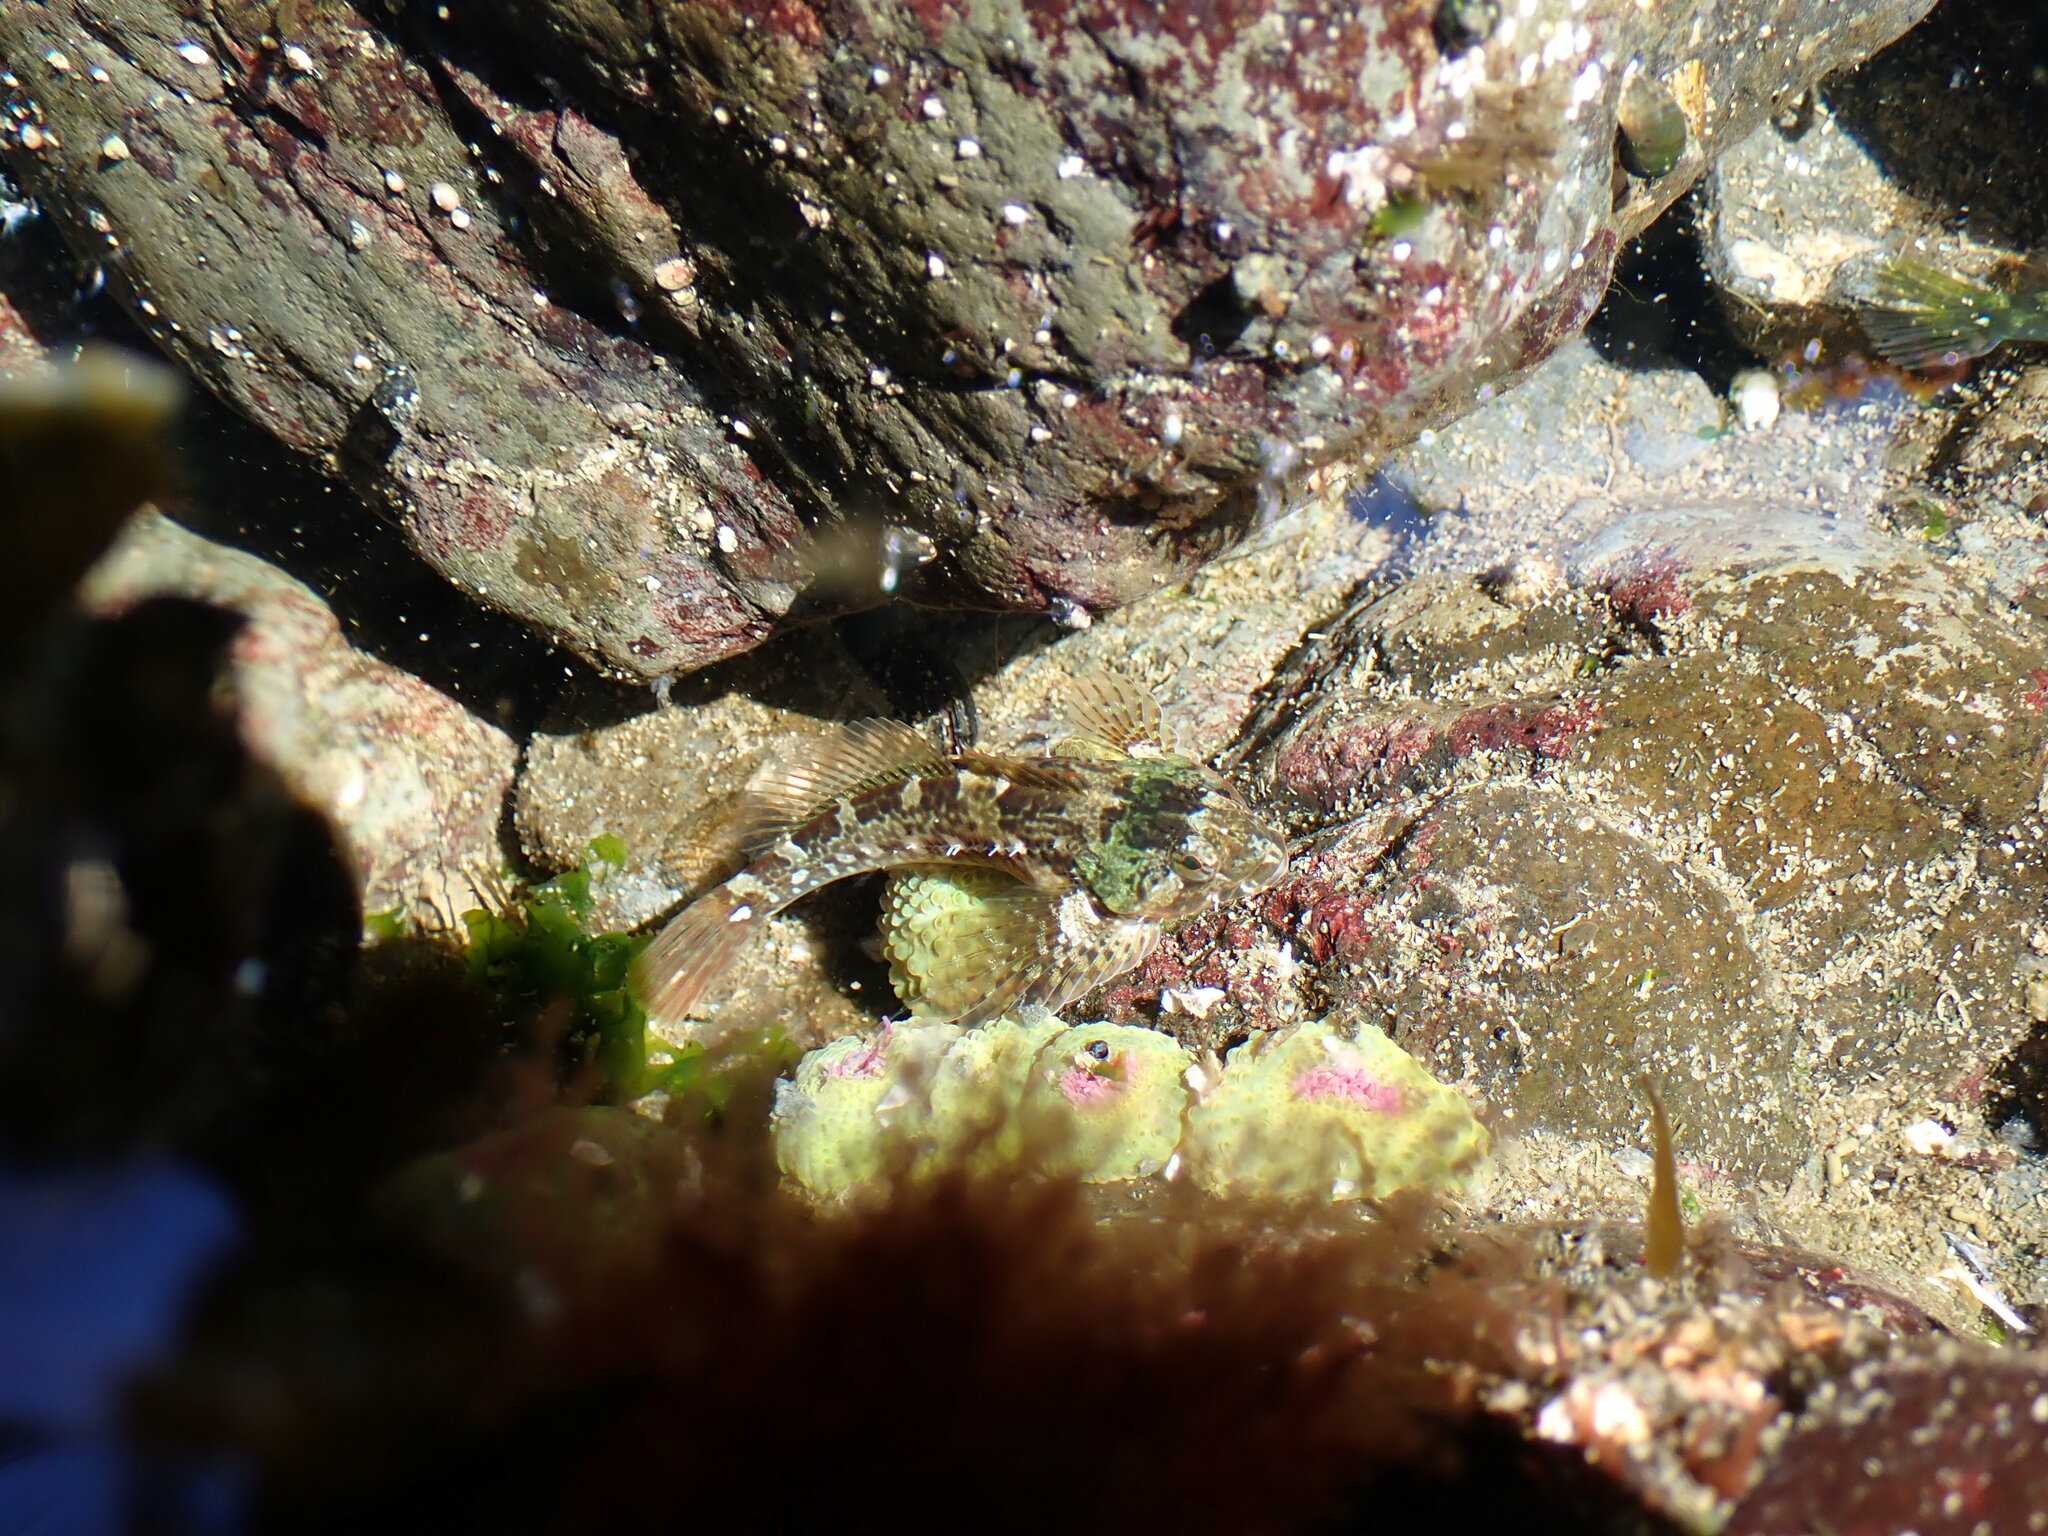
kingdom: Animalia
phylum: Chordata
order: Scorpaeniformes
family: Cottidae
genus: Oligocottus
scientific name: Oligocottus maculosus
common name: Tidepool sculpin
